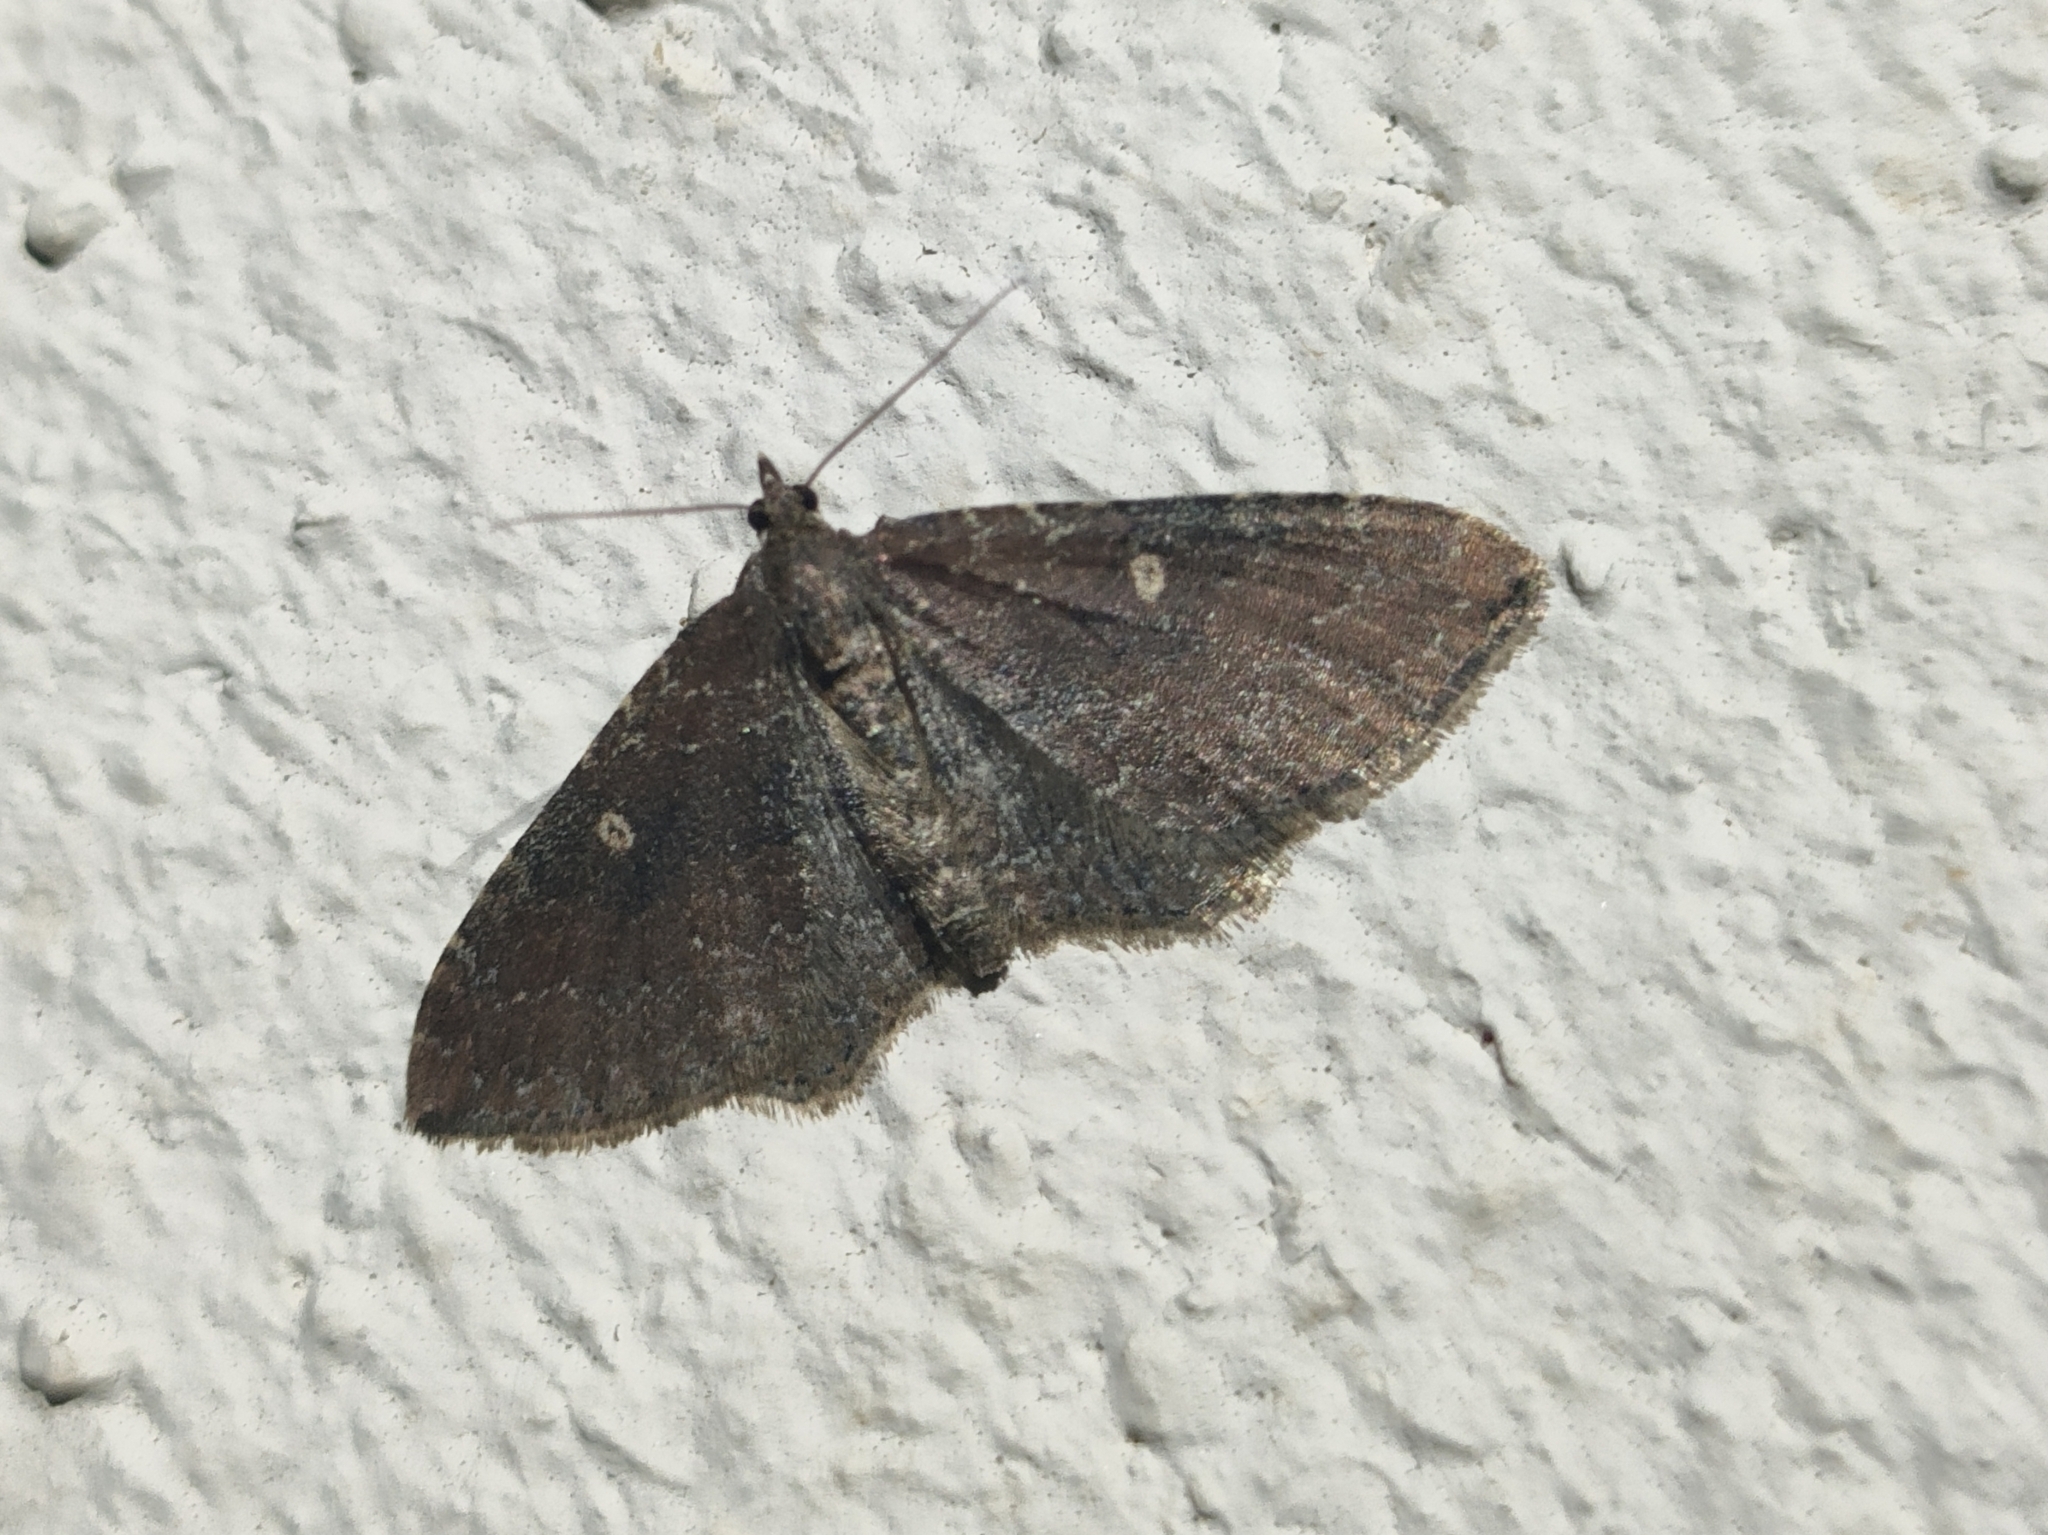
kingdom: Animalia
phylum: Arthropoda
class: Insecta
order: Lepidoptera
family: Geometridae
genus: Orthonama
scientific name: Orthonama obstipata
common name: The gem
